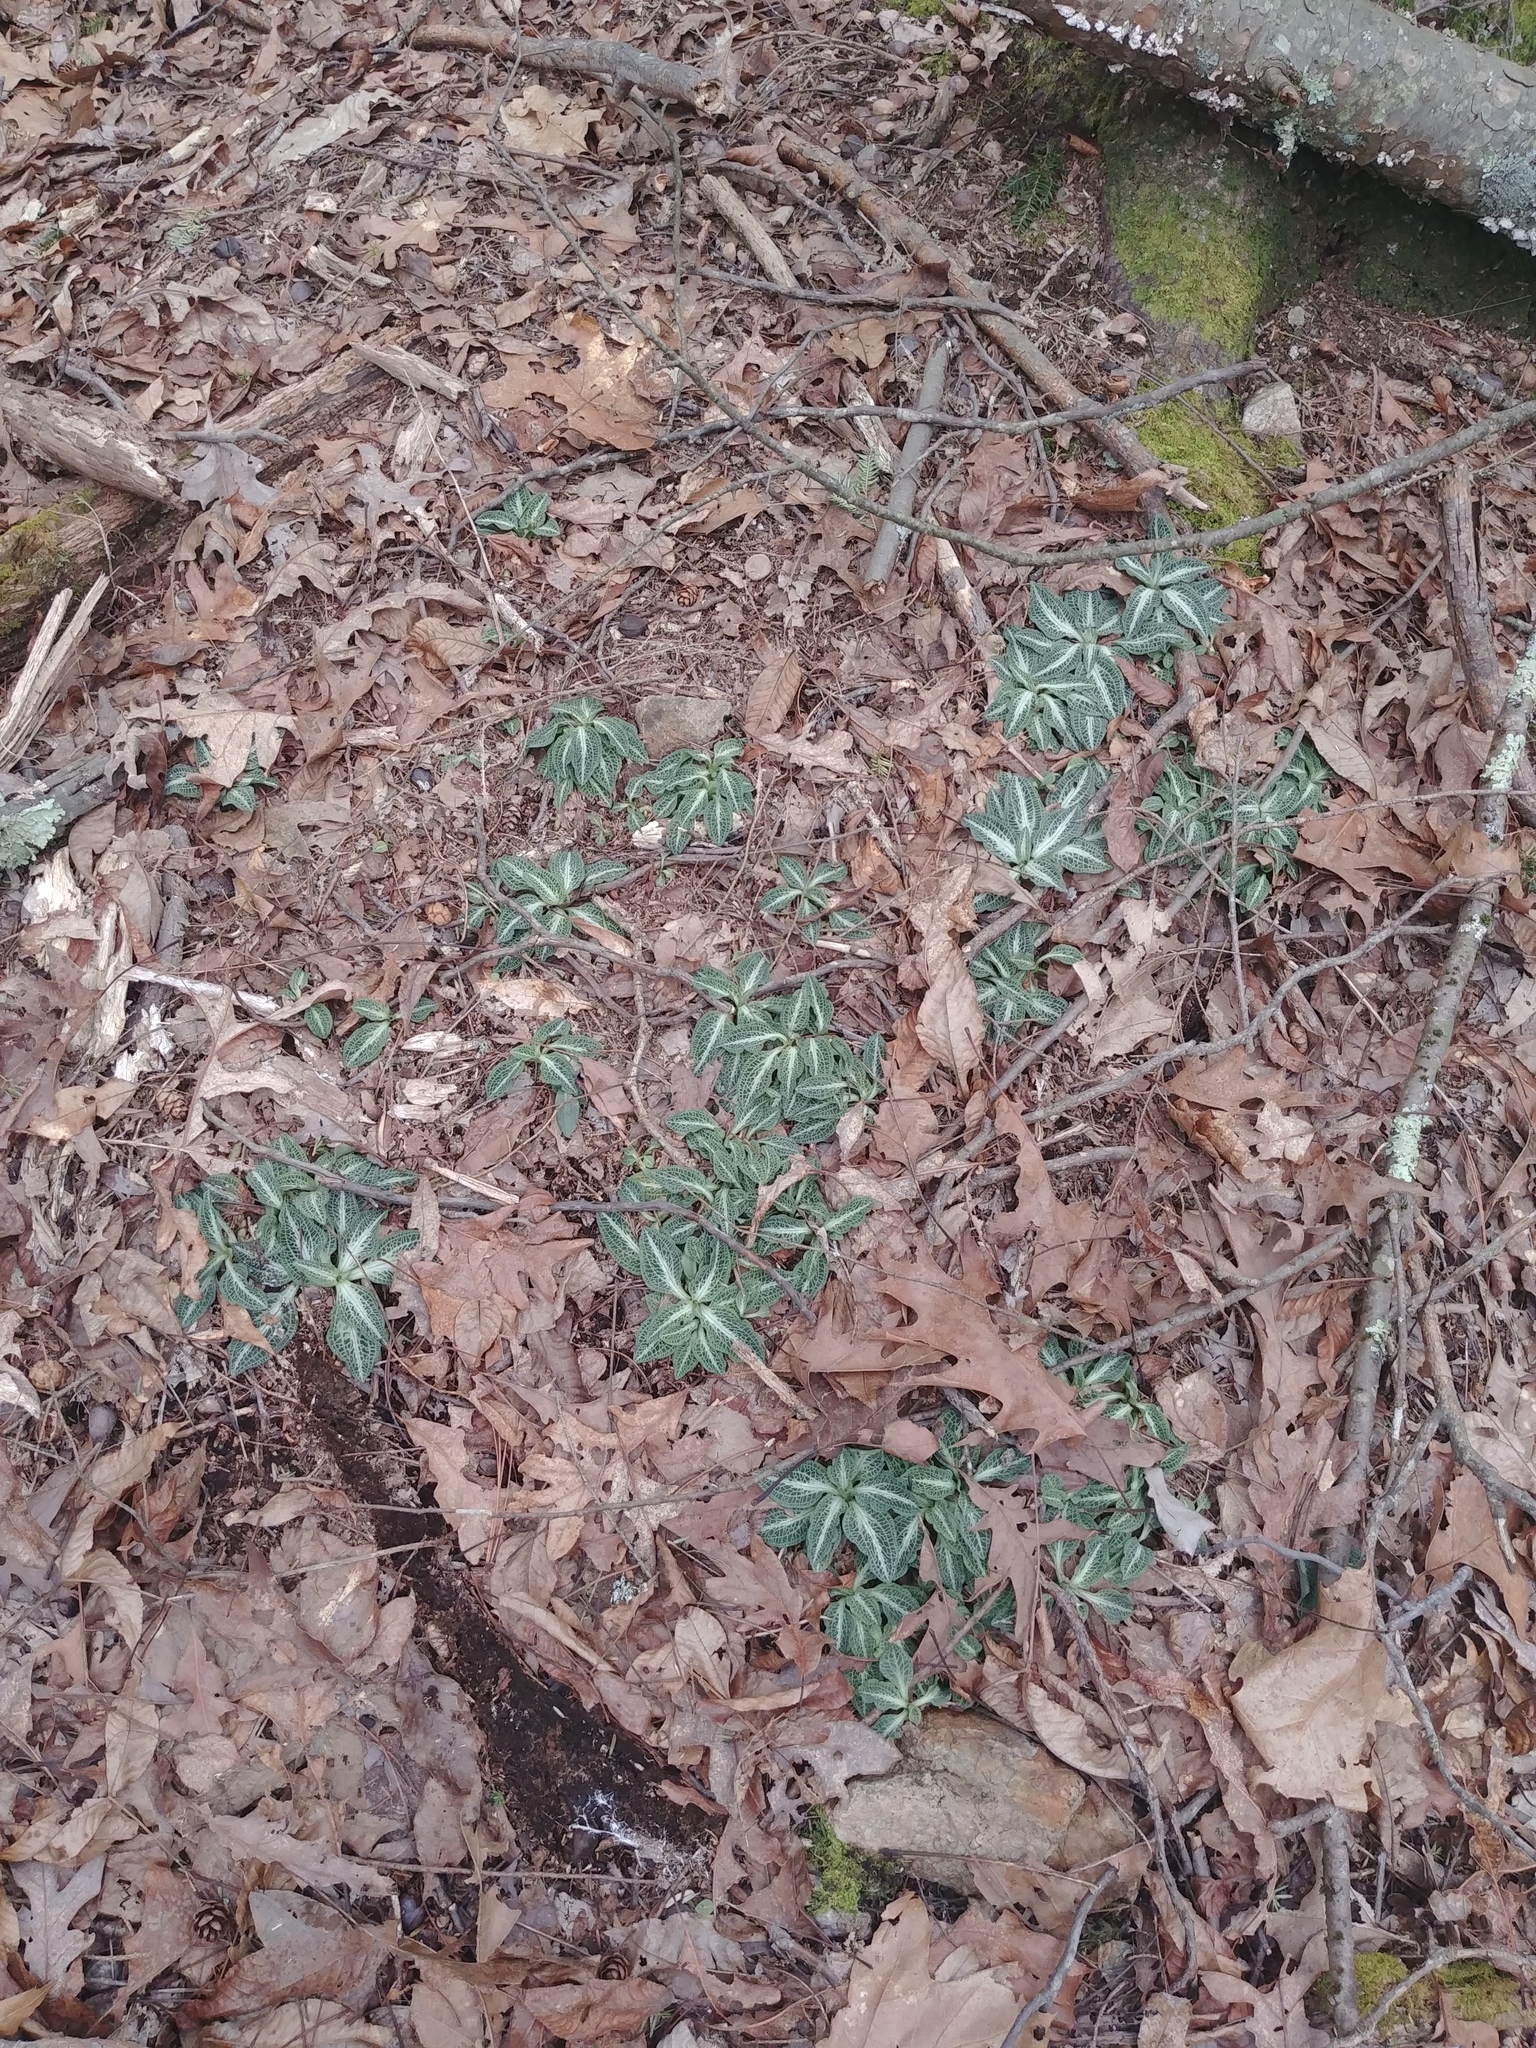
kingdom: Plantae
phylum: Tracheophyta
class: Liliopsida
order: Asparagales
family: Orchidaceae
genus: Goodyera
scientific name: Goodyera pubescens
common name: Downy rattlesnake-plantain
